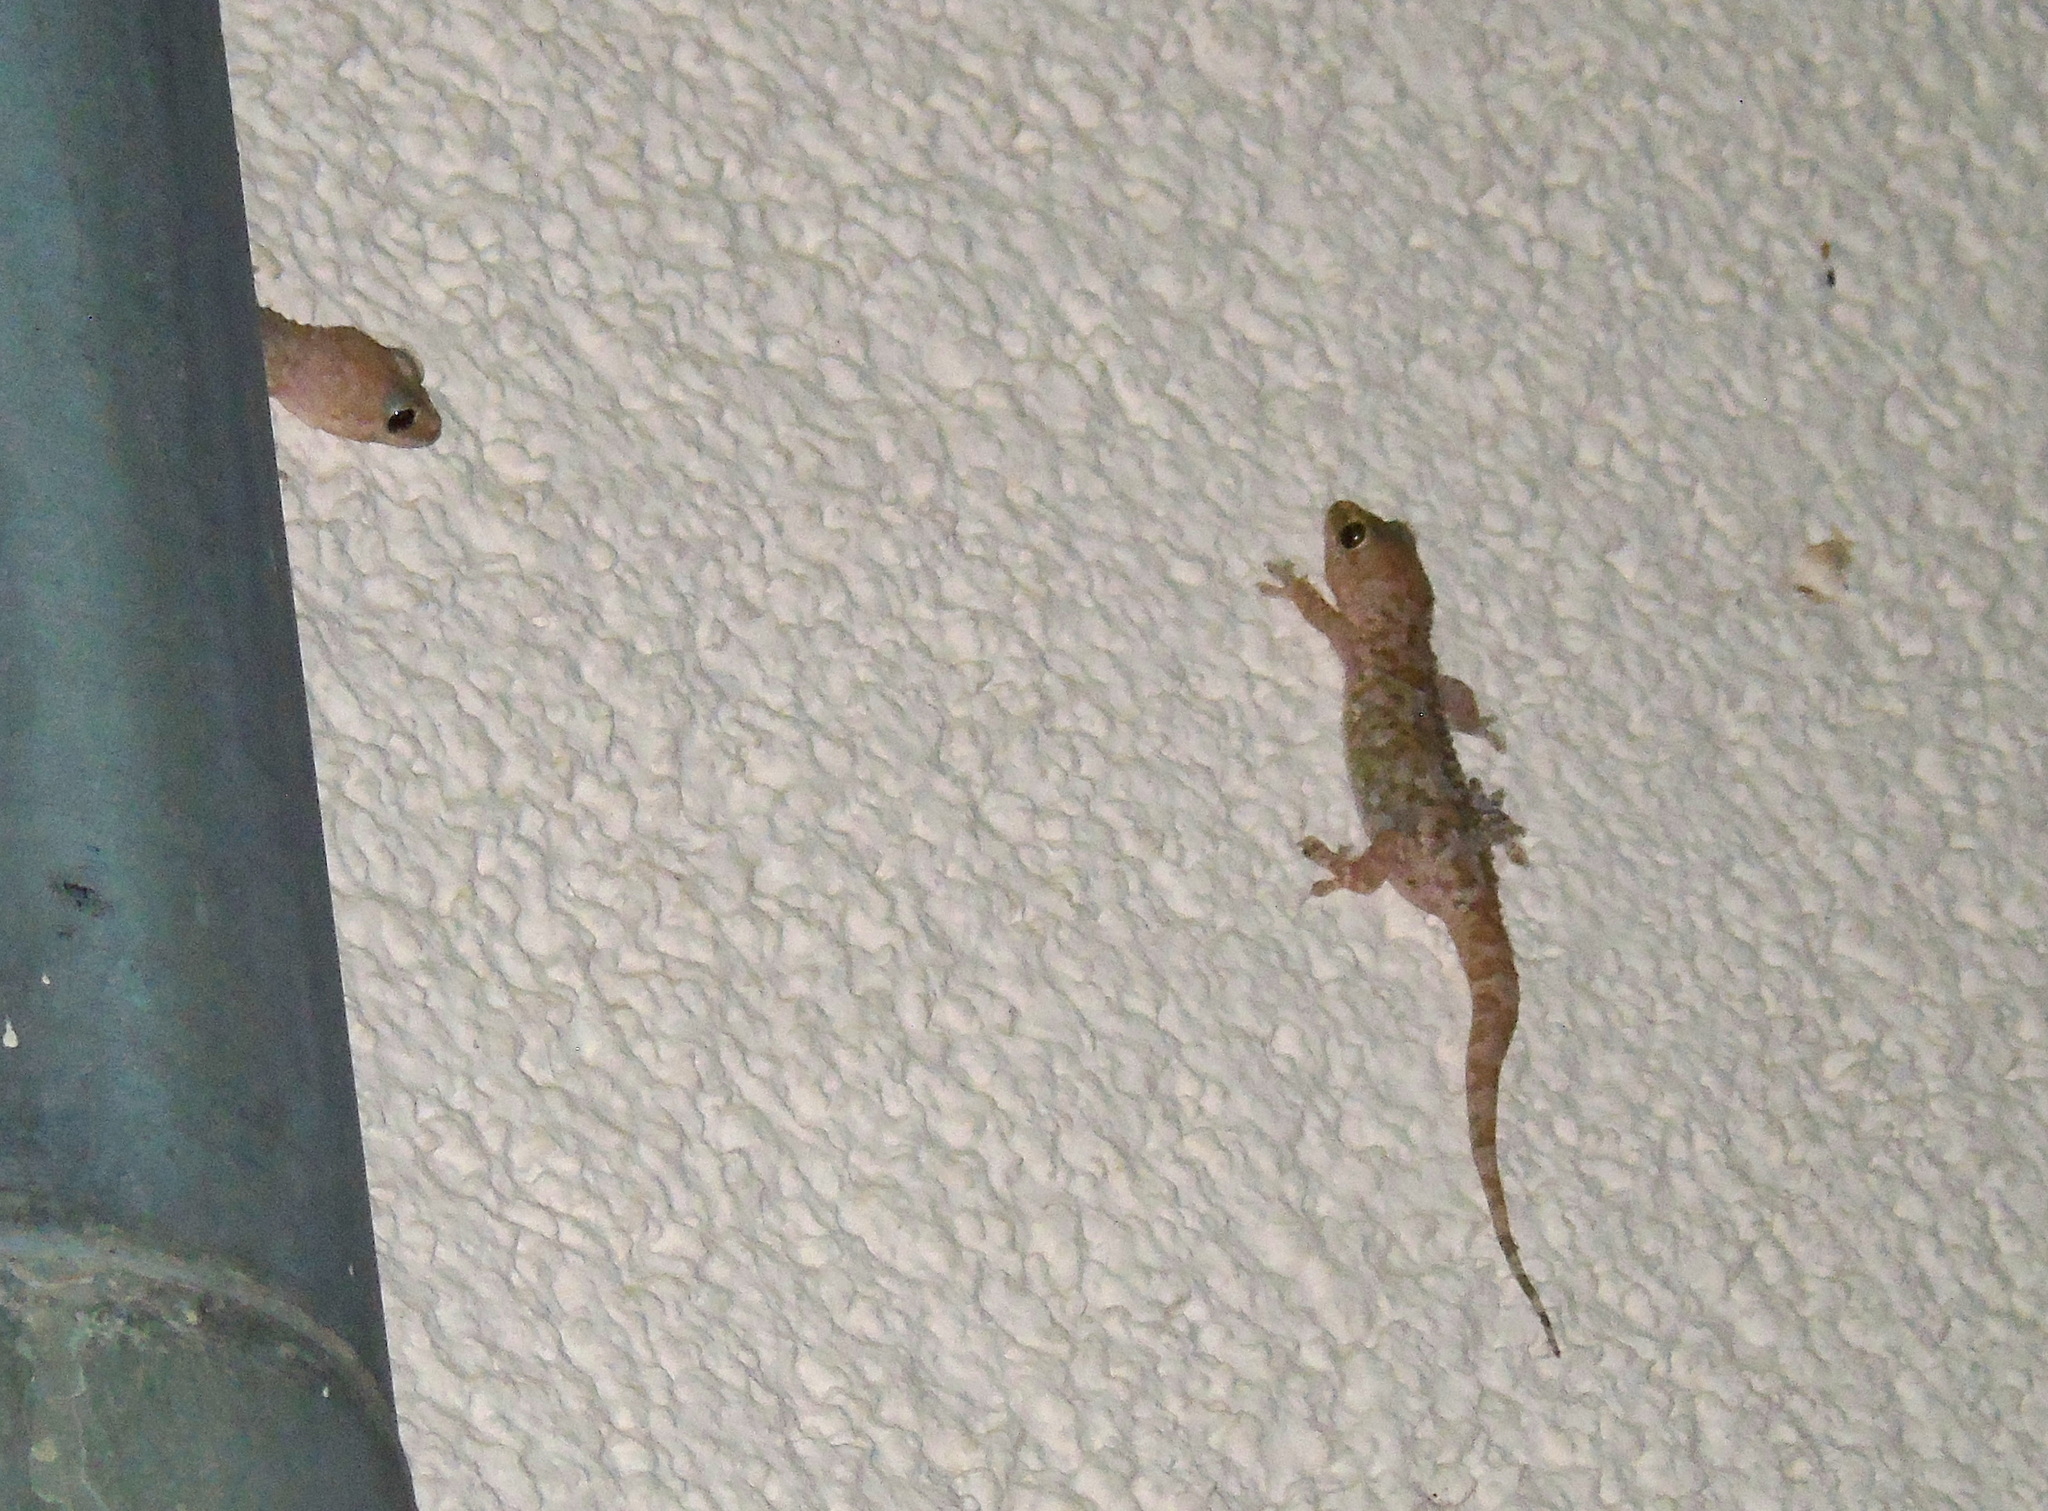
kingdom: Animalia
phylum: Chordata
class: Squamata
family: Gekkonidae
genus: Hemidactylus
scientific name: Hemidactylus turcicus
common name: Turkish gecko
